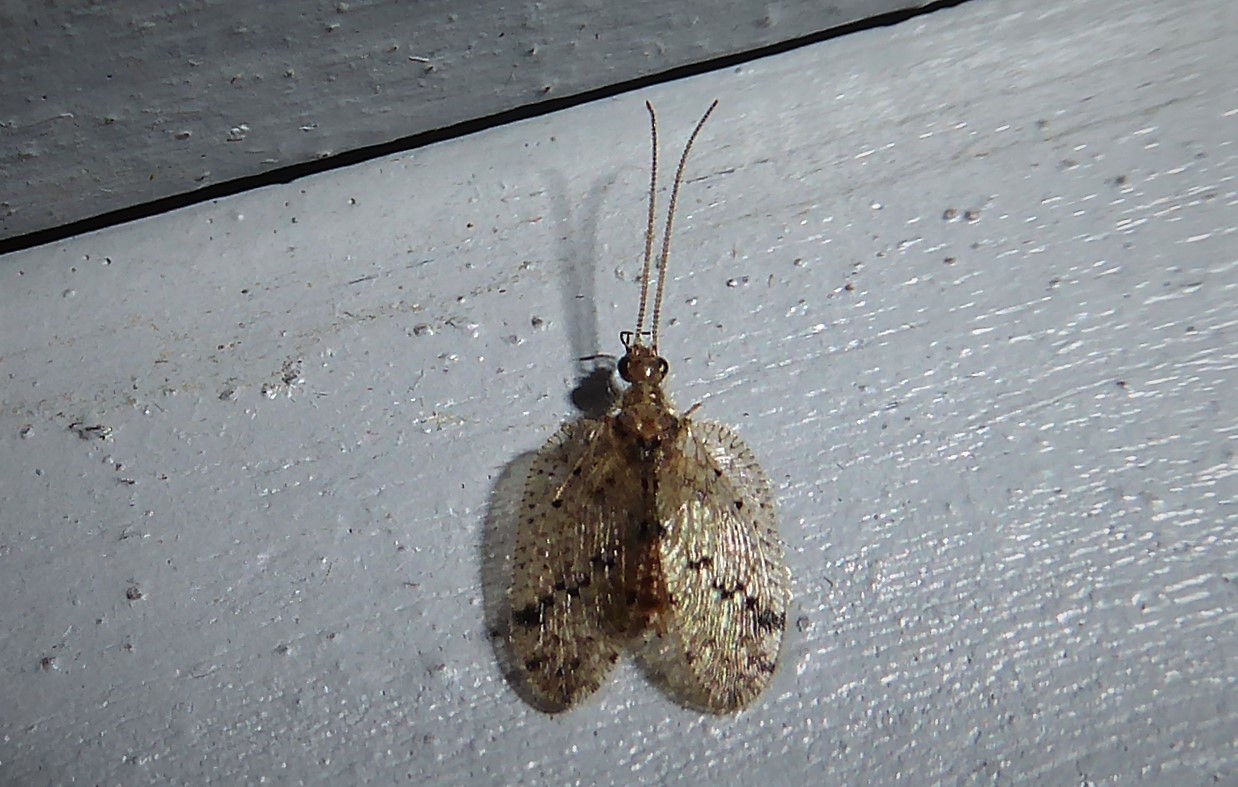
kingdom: Animalia
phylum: Arthropoda
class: Insecta
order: Neuroptera
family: Hemerobiidae
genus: Psectra
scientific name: Psectra nakaharai
